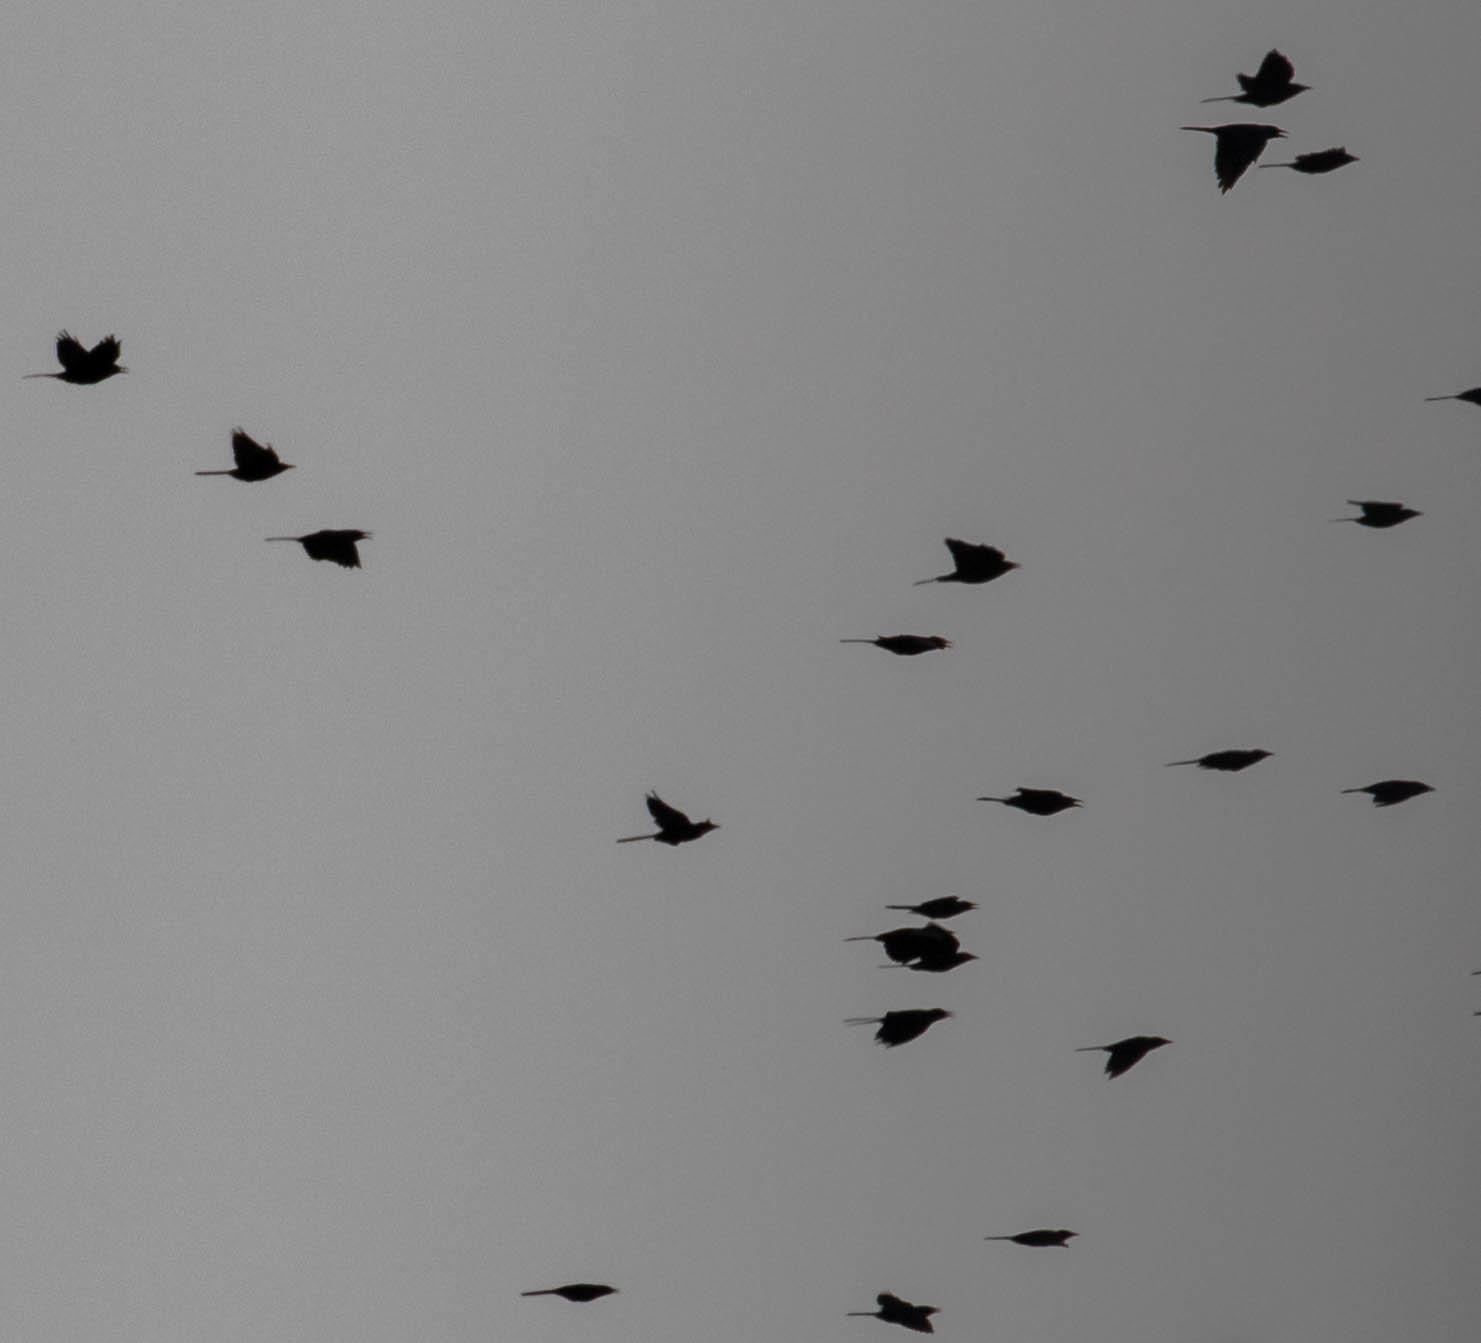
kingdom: Animalia
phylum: Chordata
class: Aves
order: Passeriformes
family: Icteridae
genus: Quiscalus
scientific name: Quiscalus quiscula
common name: Common grackle
